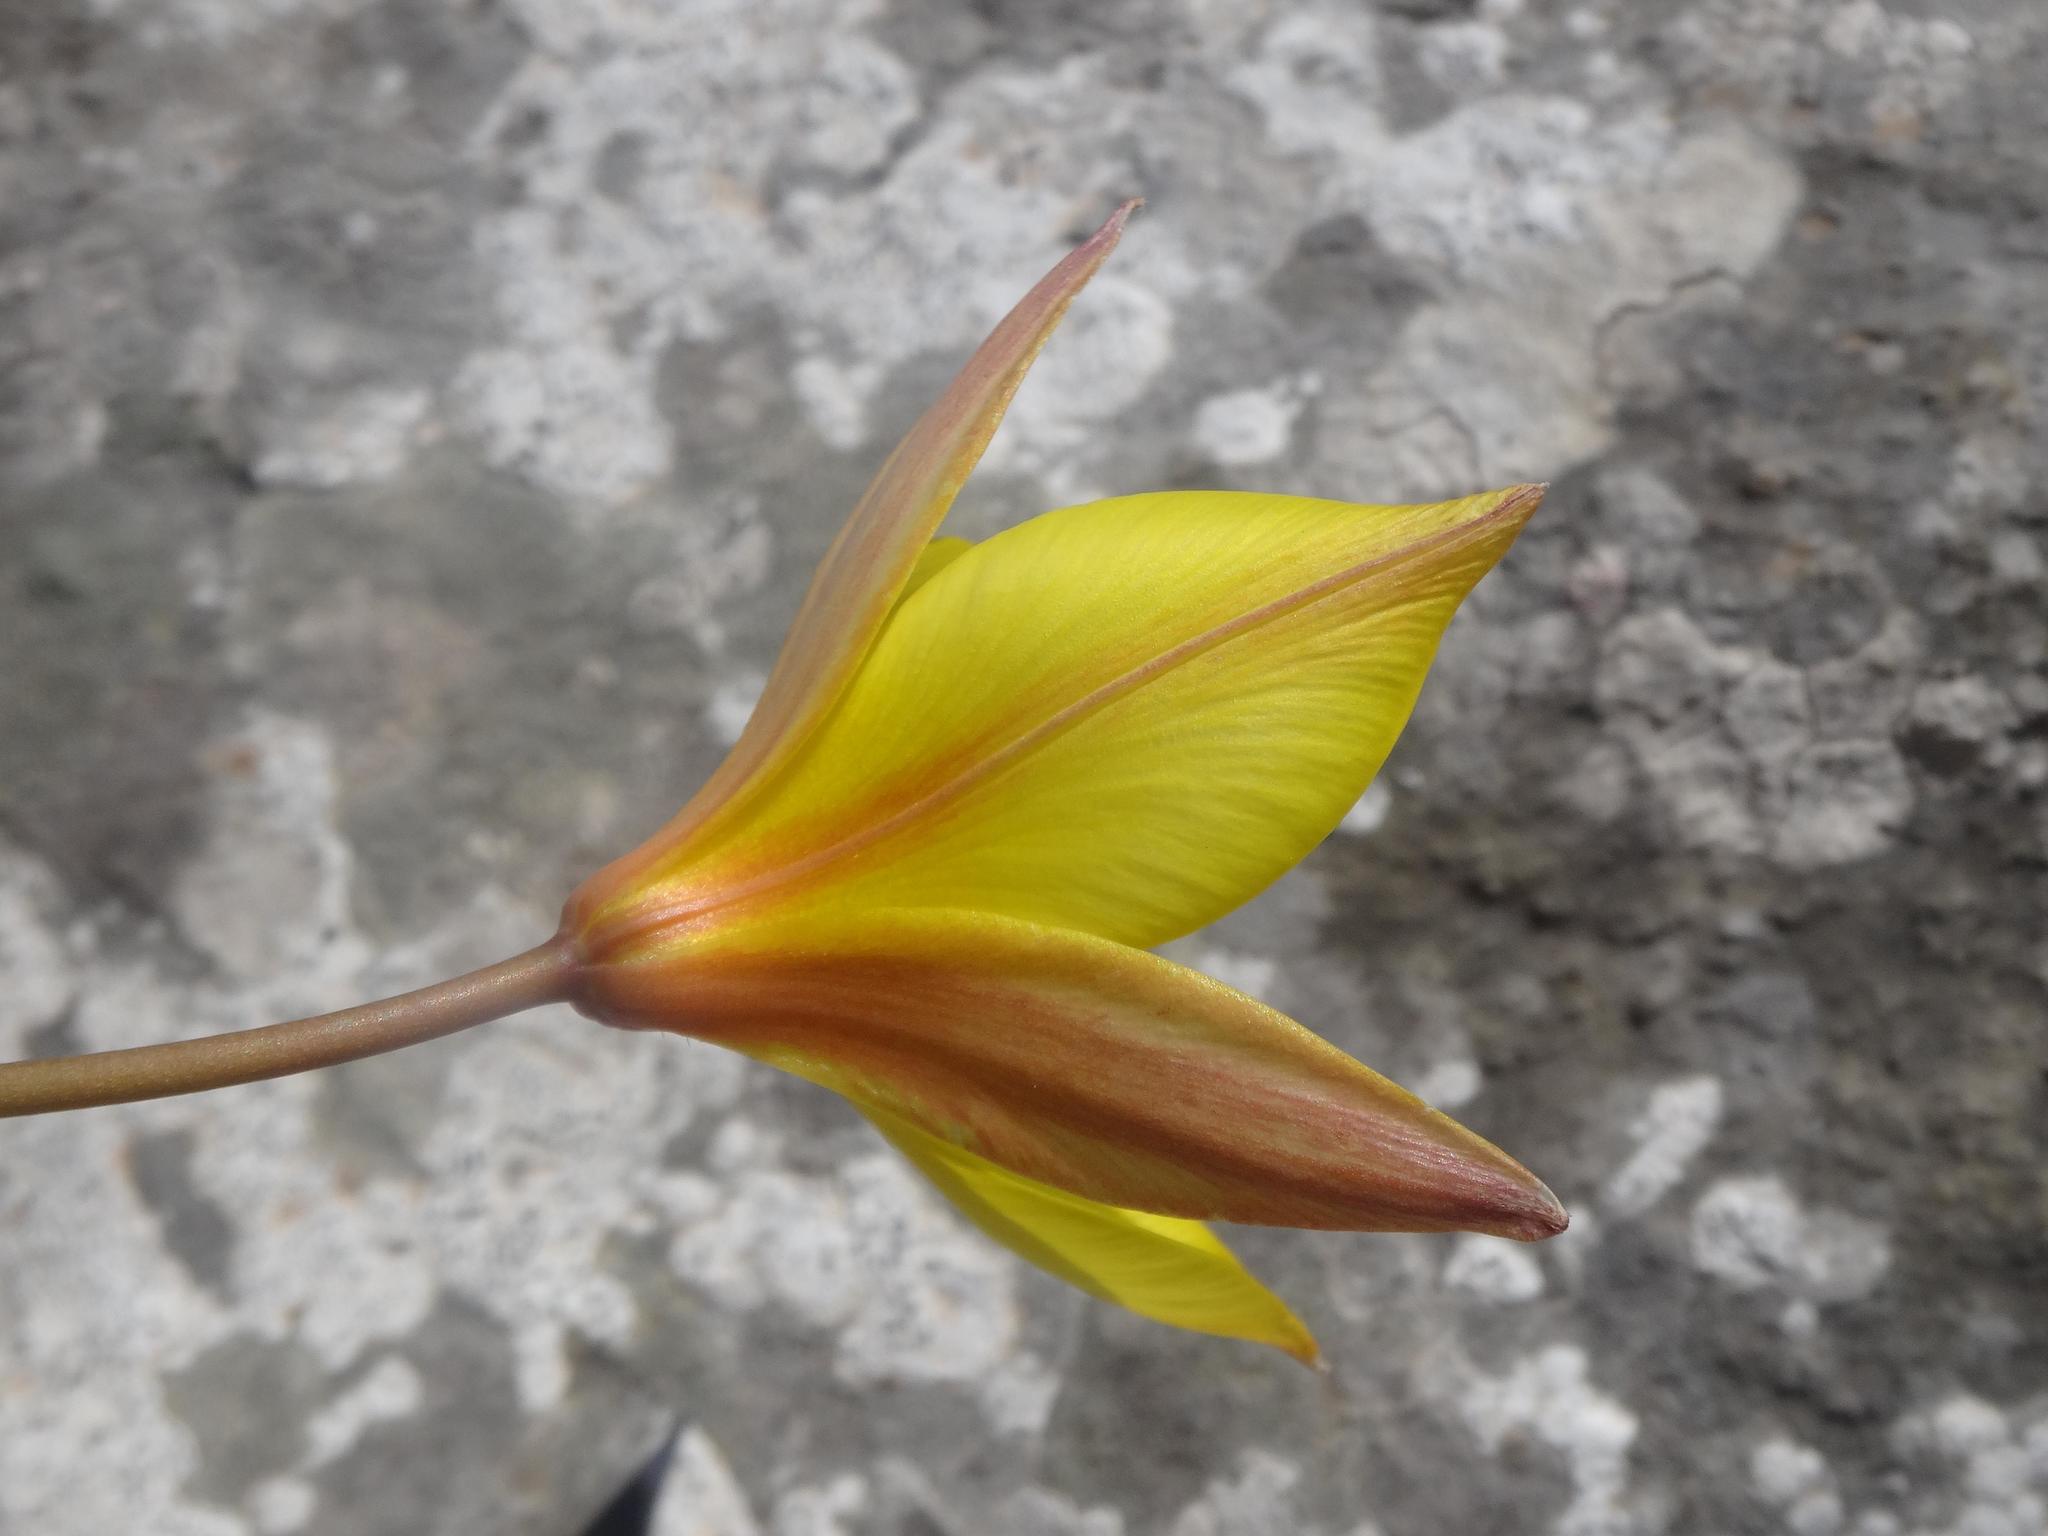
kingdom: Plantae
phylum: Tracheophyta
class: Liliopsida
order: Liliales
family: Liliaceae
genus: Tulipa
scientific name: Tulipa sylvestris
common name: Wild tulip
